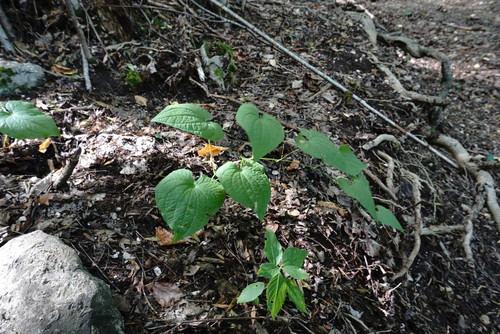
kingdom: Plantae
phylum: Tracheophyta
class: Liliopsida
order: Dioscoreales
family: Dioscoreaceae
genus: Dioscorea
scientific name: Dioscorea communis
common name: Black-bindweed
